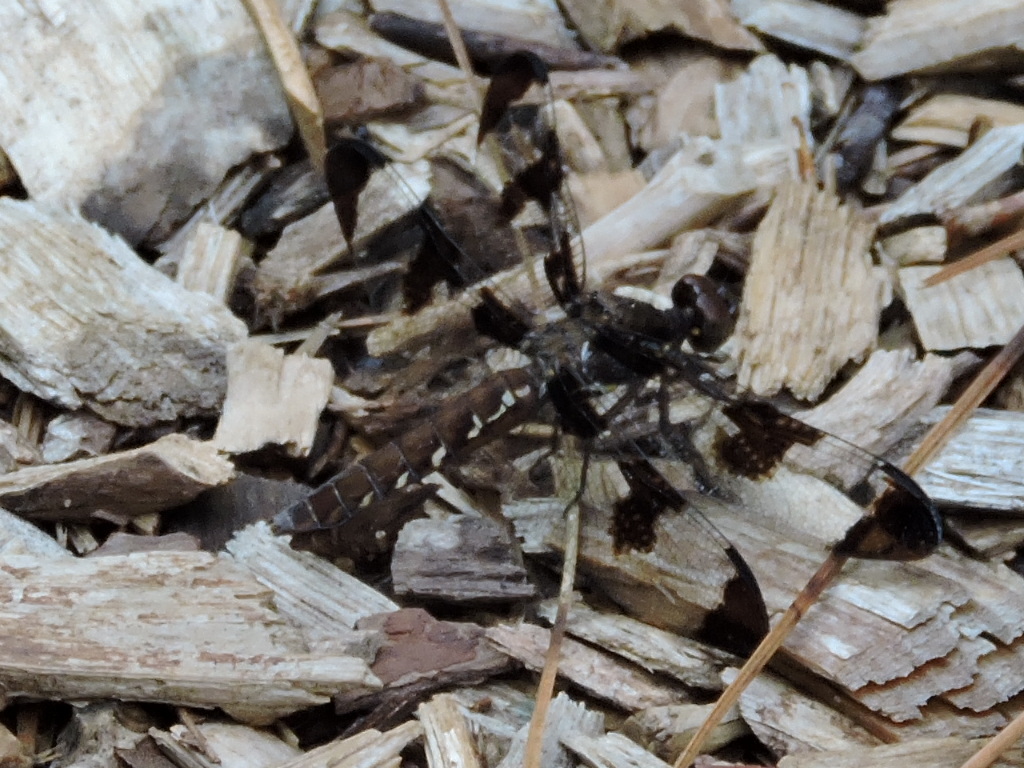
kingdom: Animalia
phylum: Arthropoda
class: Insecta
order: Odonata
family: Libellulidae
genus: Plathemis
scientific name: Plathemis lydia
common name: Common whitetail
